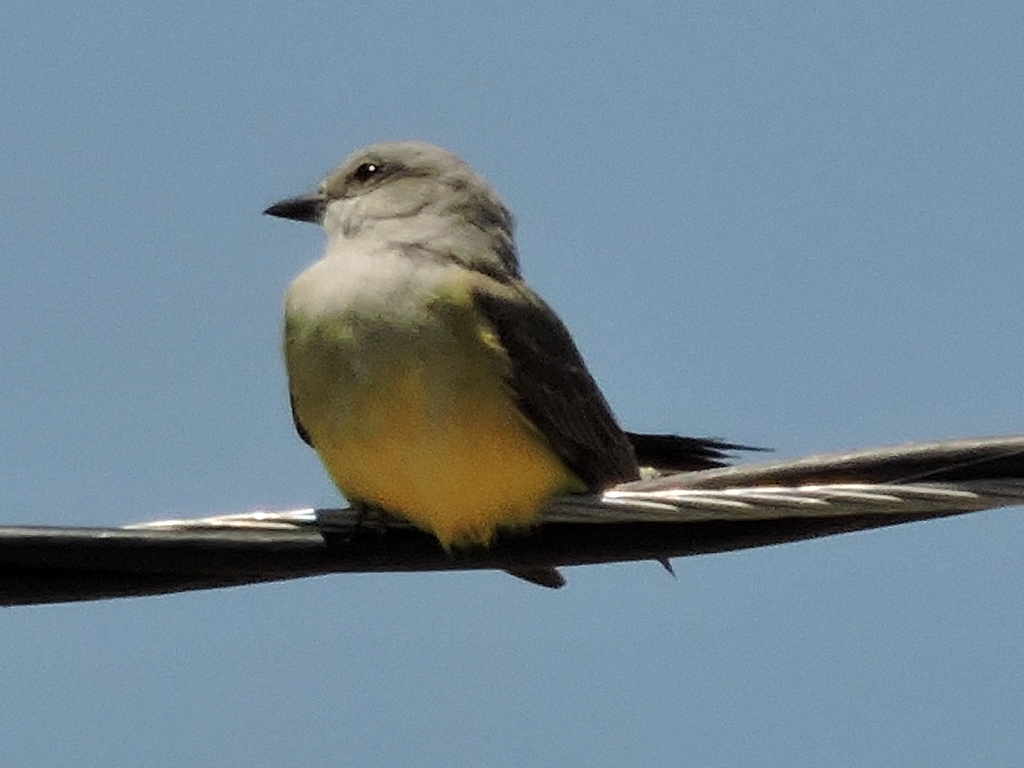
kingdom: Animalia
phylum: Chordata
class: Aves
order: Passeriformes
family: Tyrannidae
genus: Tyrannus
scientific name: Tyrannus verticalis
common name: Western kingbird
